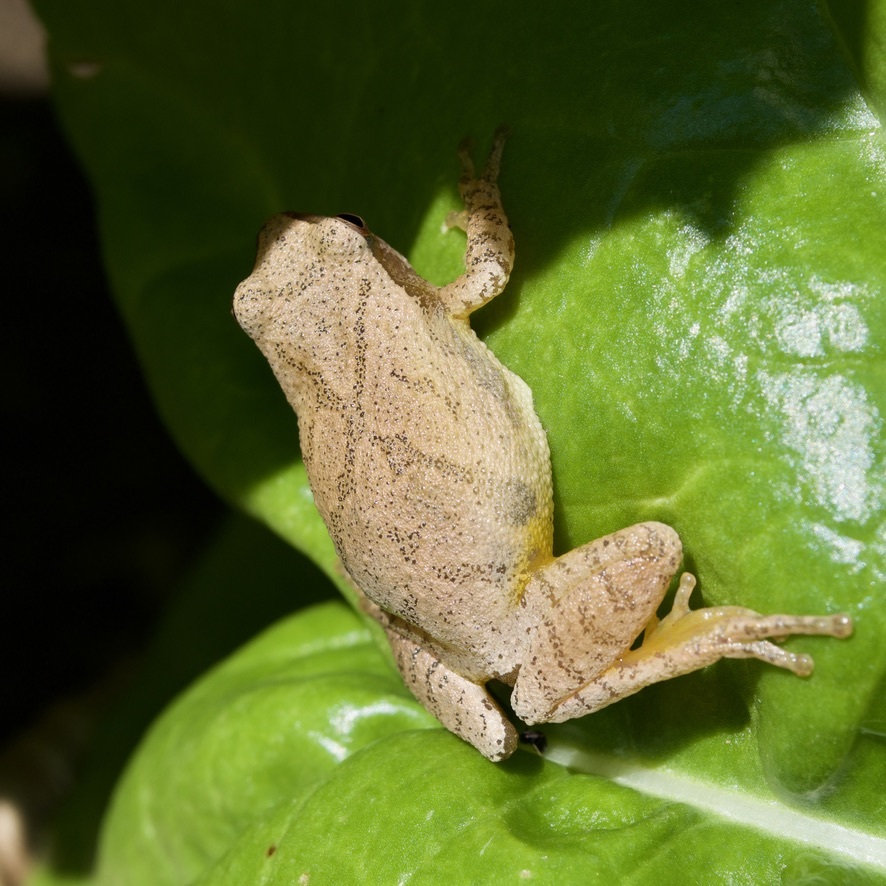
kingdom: Animalia
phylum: Chordata
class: Amphibia
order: Anura
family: Hylidae
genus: Pseudacris
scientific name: Pseudacris crucifer
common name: Spring peeper
